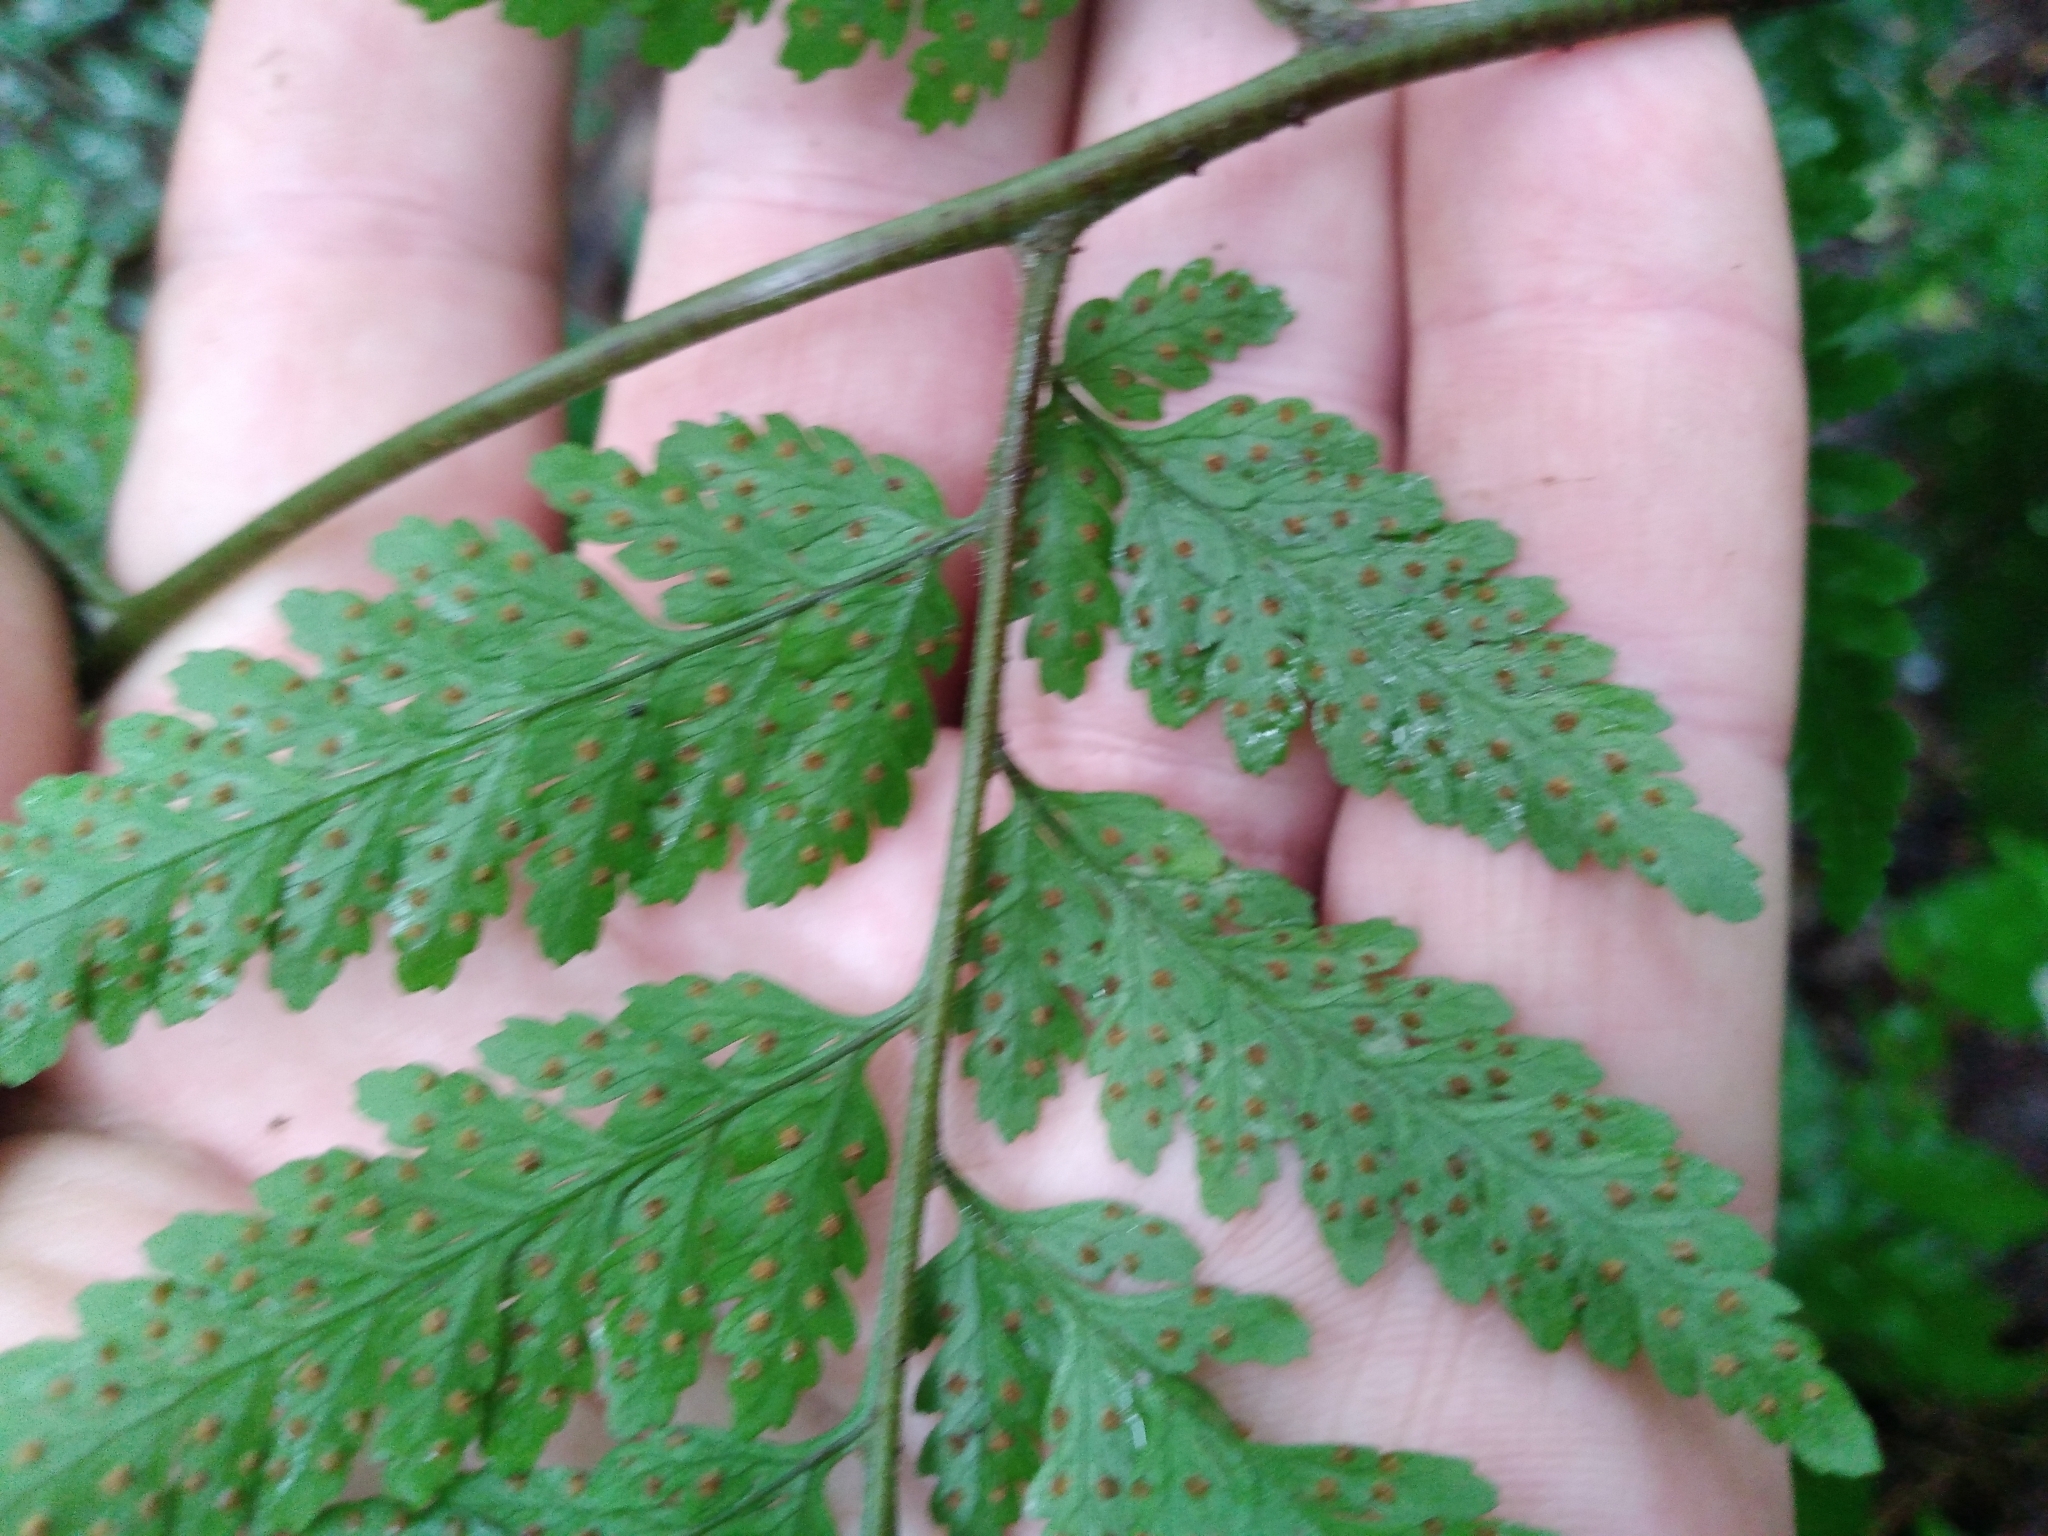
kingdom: Plantae
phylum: Tracheophyta
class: Polypodiopsida
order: Polypodiales
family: Dryopteridaceae
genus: Parapolystichum
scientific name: Parapolystichum calanthum
